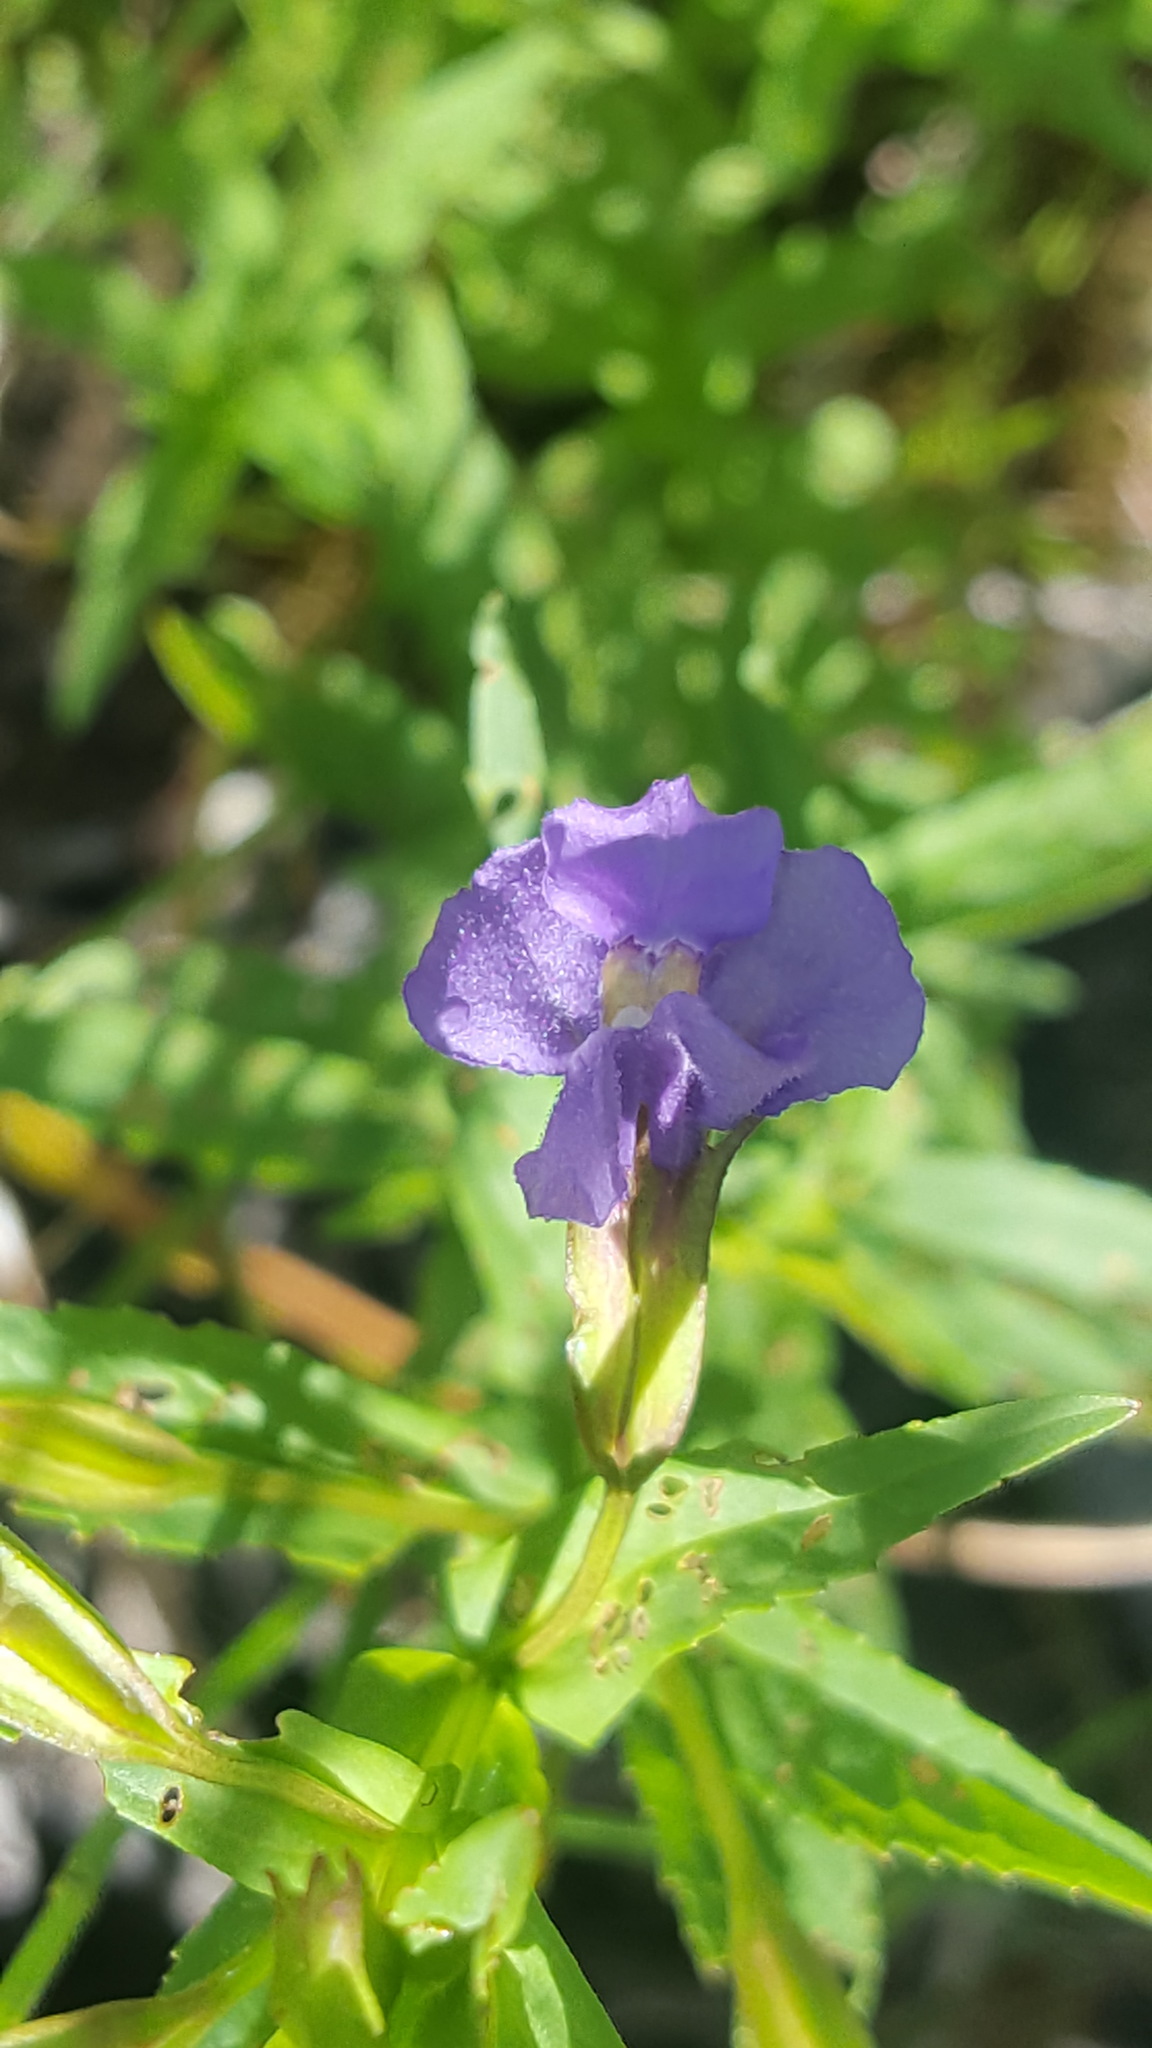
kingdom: Plantae
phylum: Tracheophyta
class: Magnoliopsida
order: Lamiales
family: Phrymaceae
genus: Mimulus
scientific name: Mimulus ringens
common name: Allegheny monkeyflower
